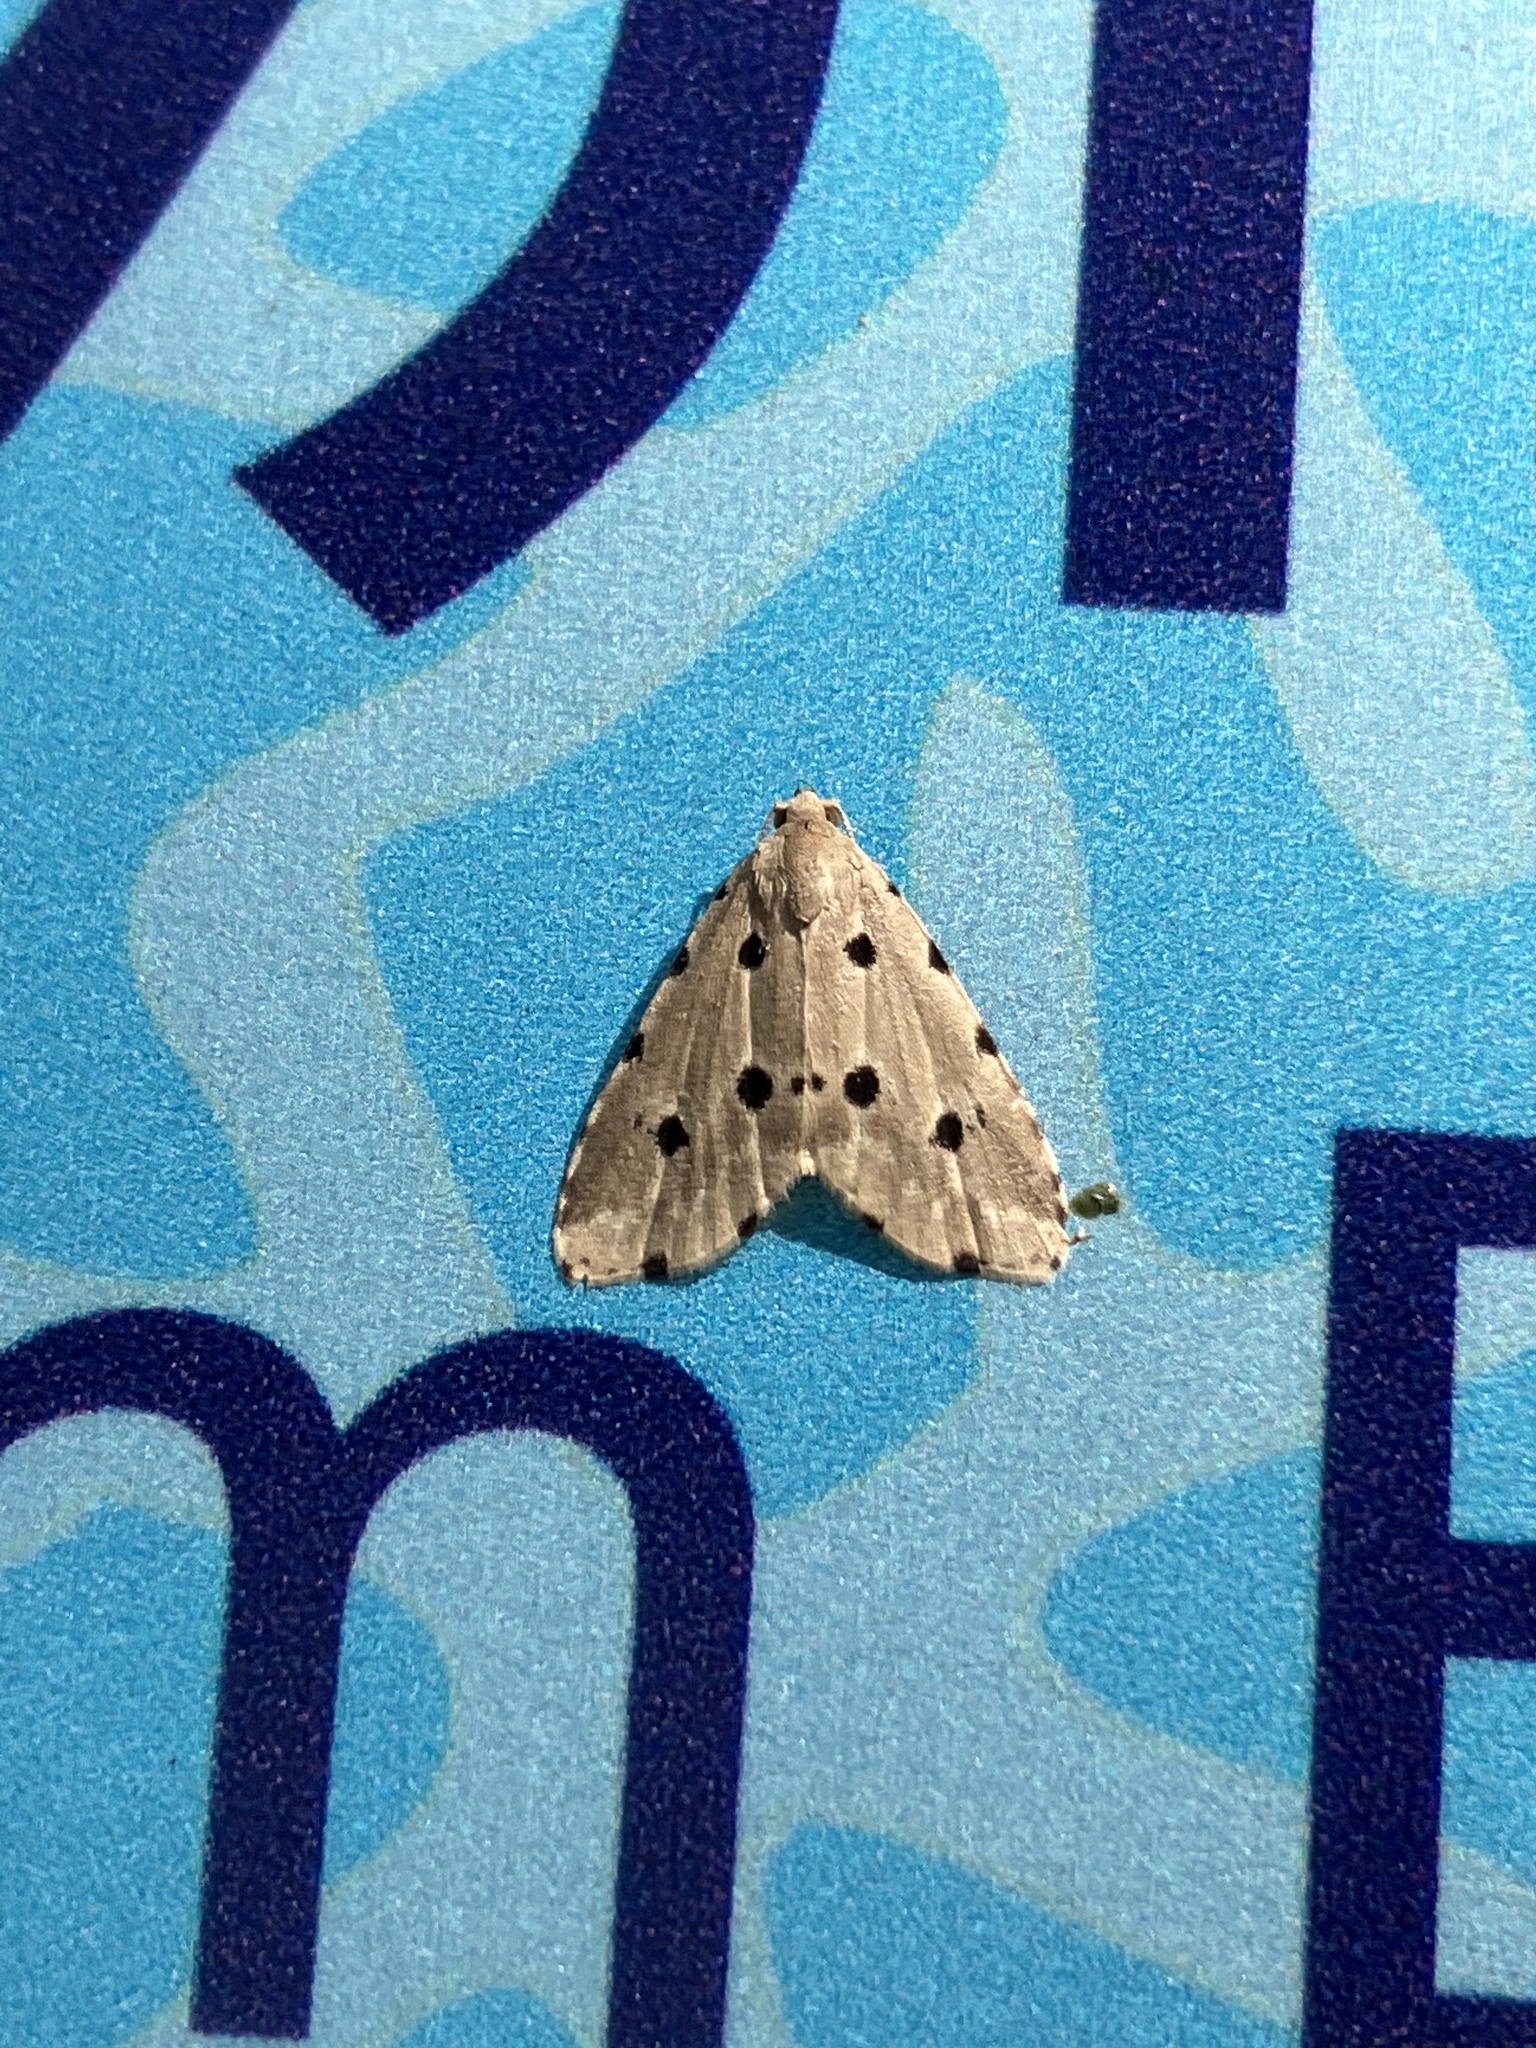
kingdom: Animalia
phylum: Arthropoda
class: Insecta
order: Lepidoptera
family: Noctuidae
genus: Metaemene
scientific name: Metaemene atrigutta
